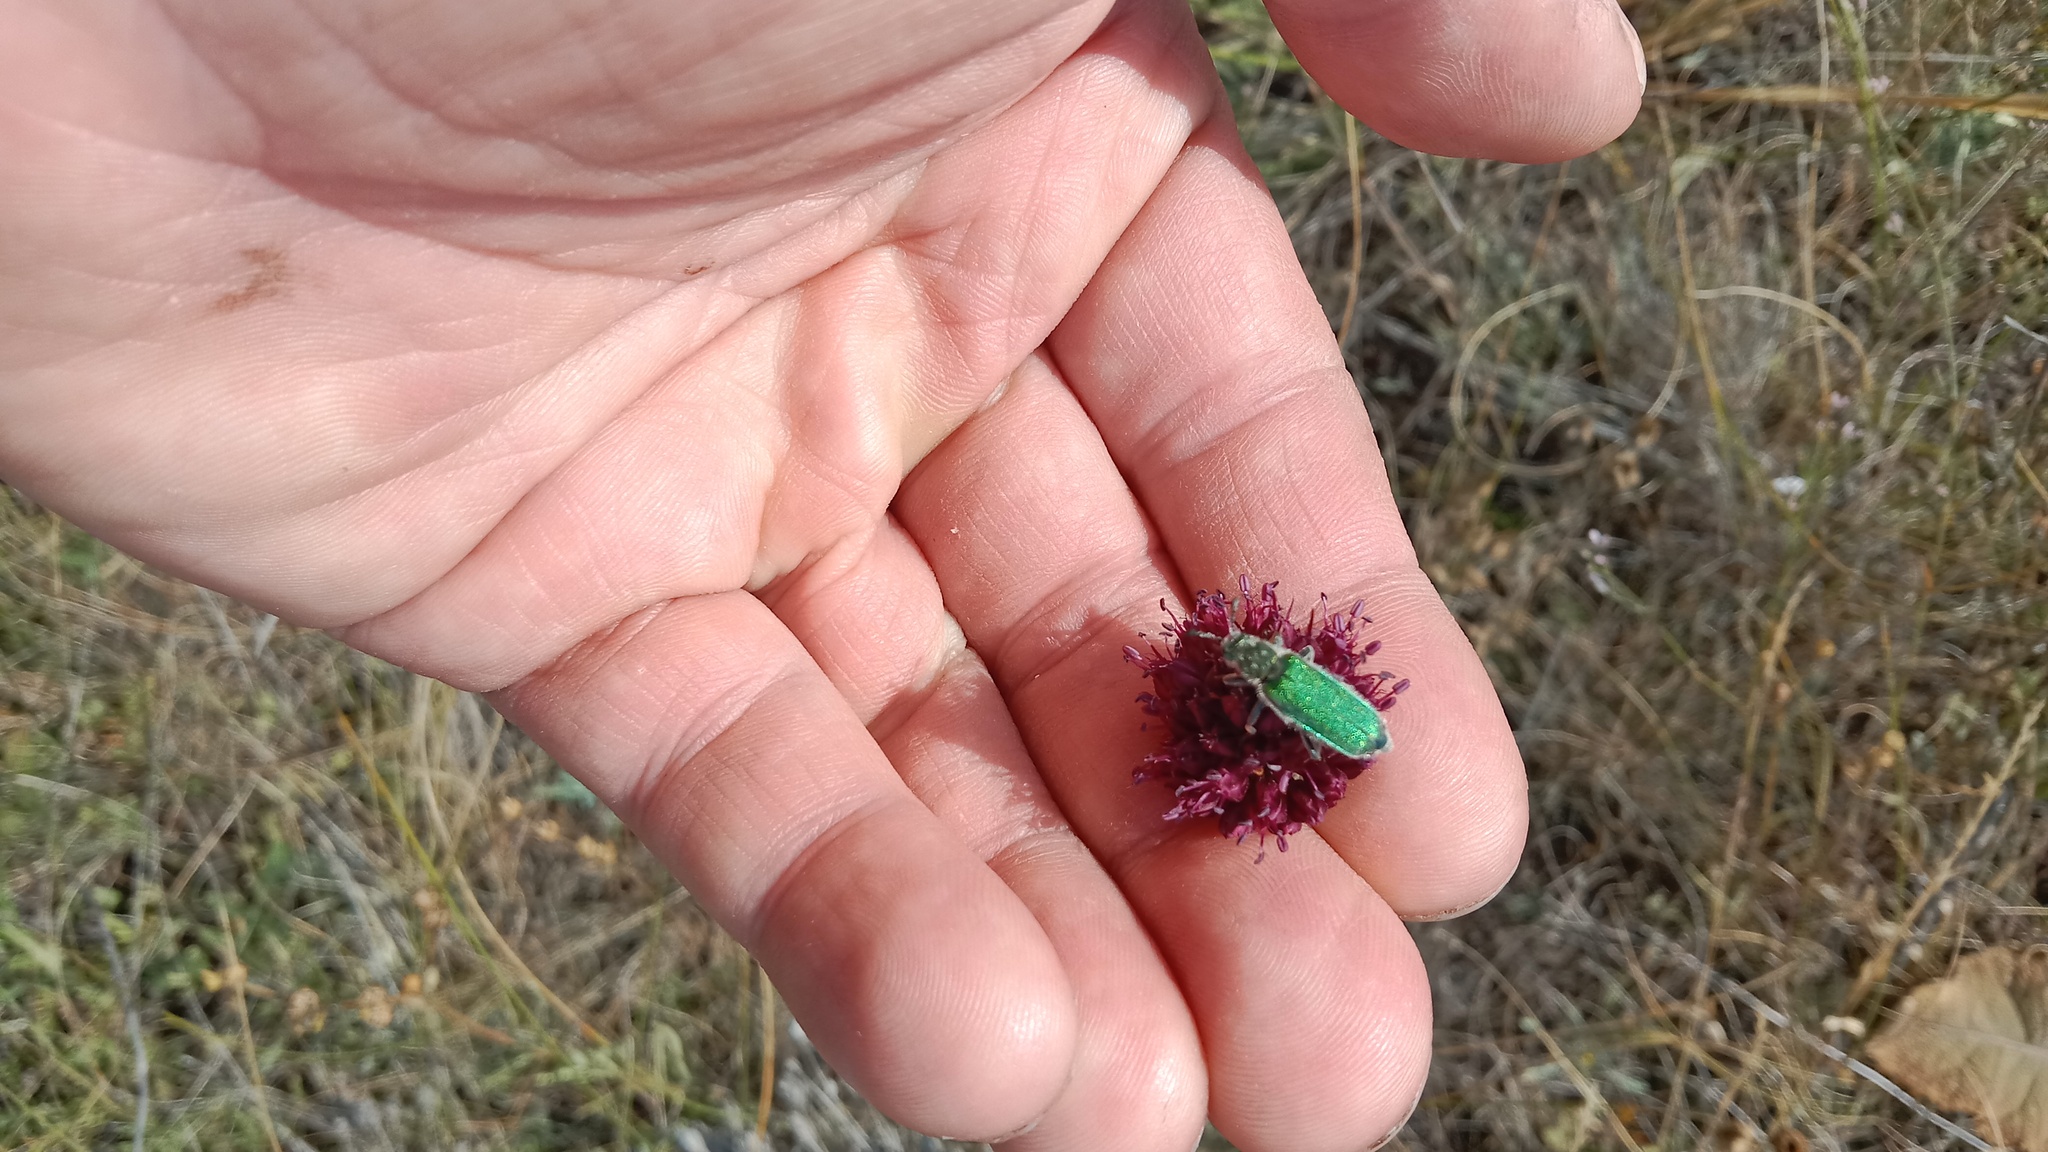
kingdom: Animalia
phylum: Arthropoda
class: Insecta
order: Coleoptera
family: Meloidae
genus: Cerocoma
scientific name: Cerocoma schreberi
